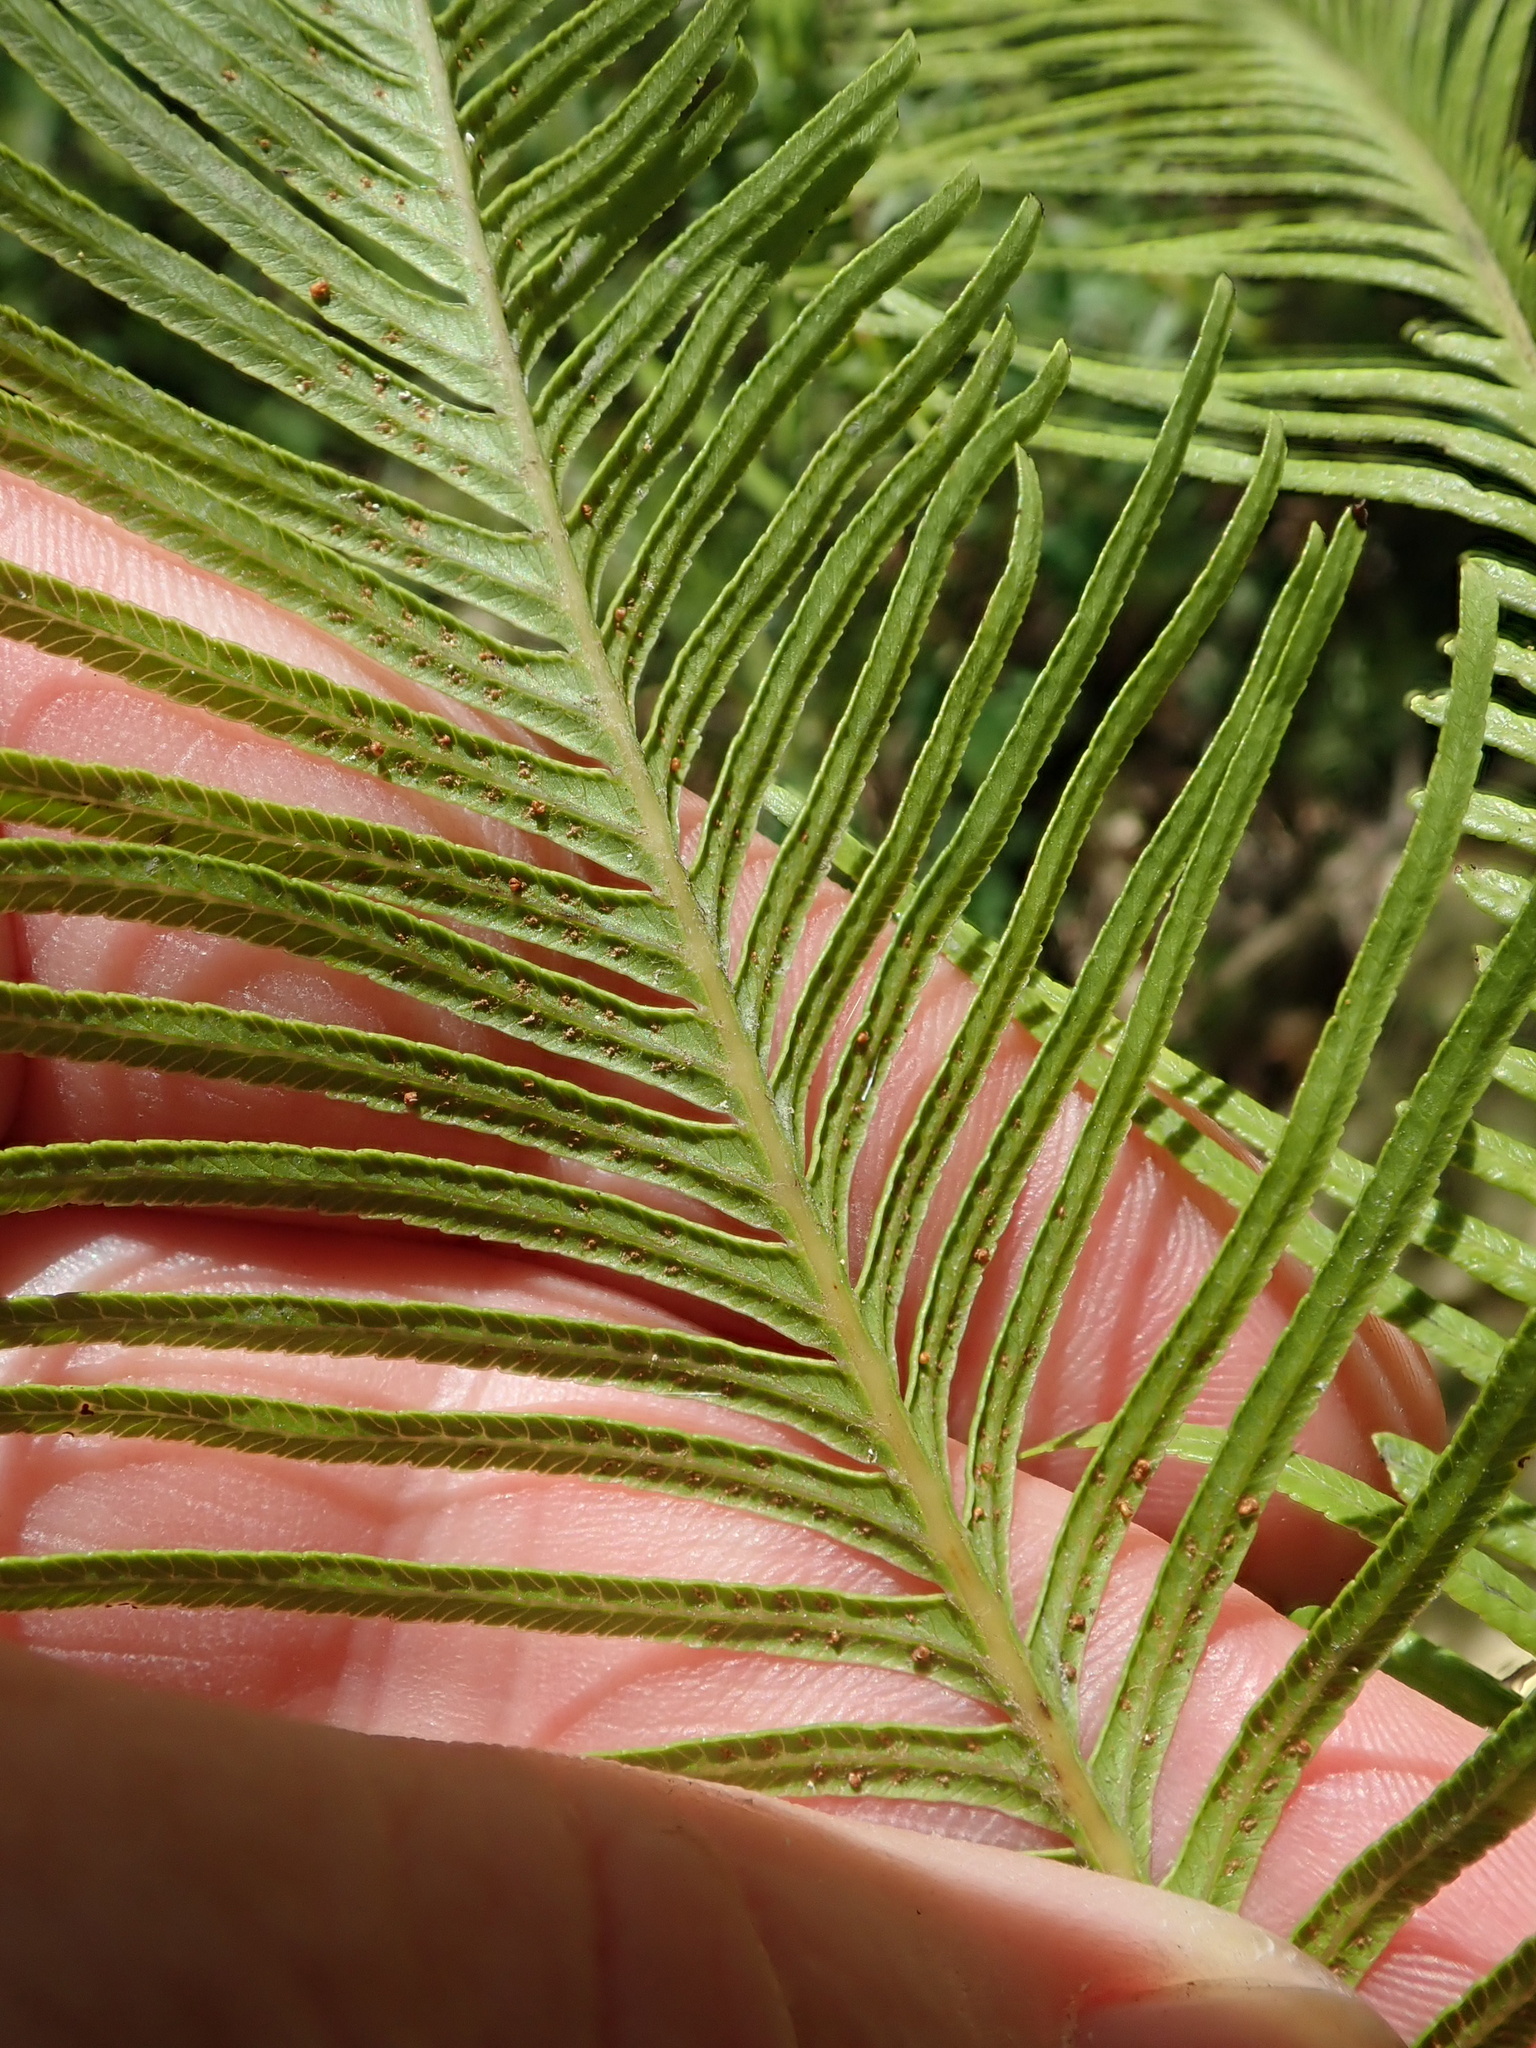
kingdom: Plantae
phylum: Tracheophyta
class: Polypodiopsida
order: Gleicheniales
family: Gleicheniaceae
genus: Sticherus
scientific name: Sticherus flabellatus
